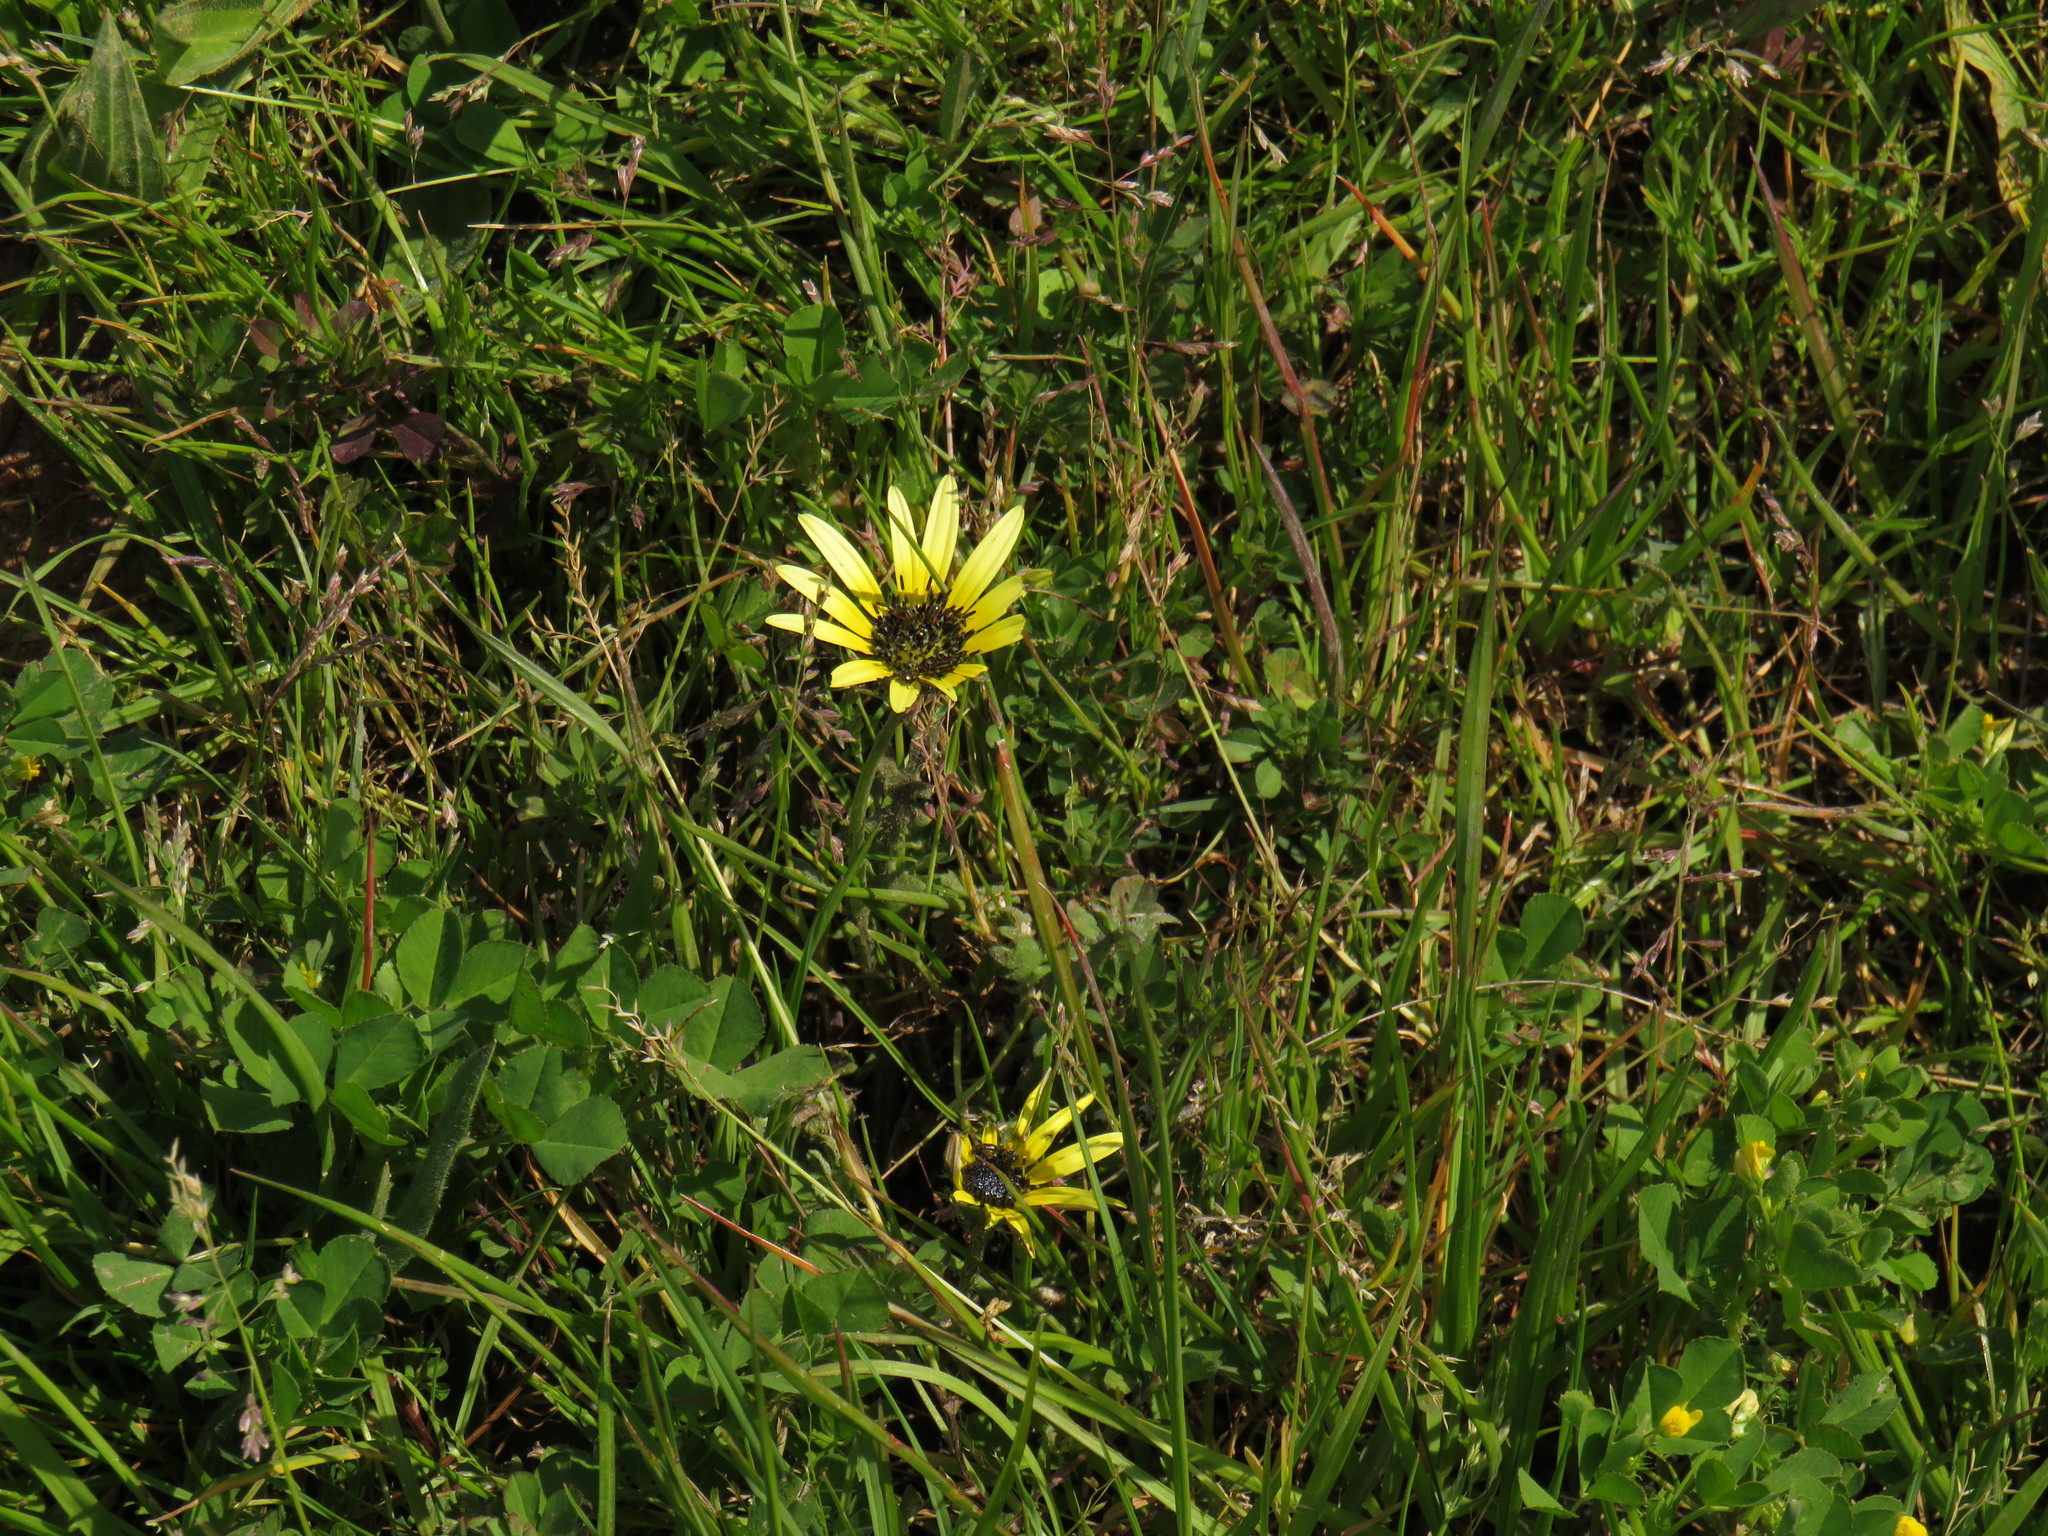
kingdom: Plantae
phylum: Tracheophyta
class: Magnoliopsida
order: Asterales
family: Asteraceae
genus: Arctotheca
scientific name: Arctotheca calendula
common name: Capeweed
